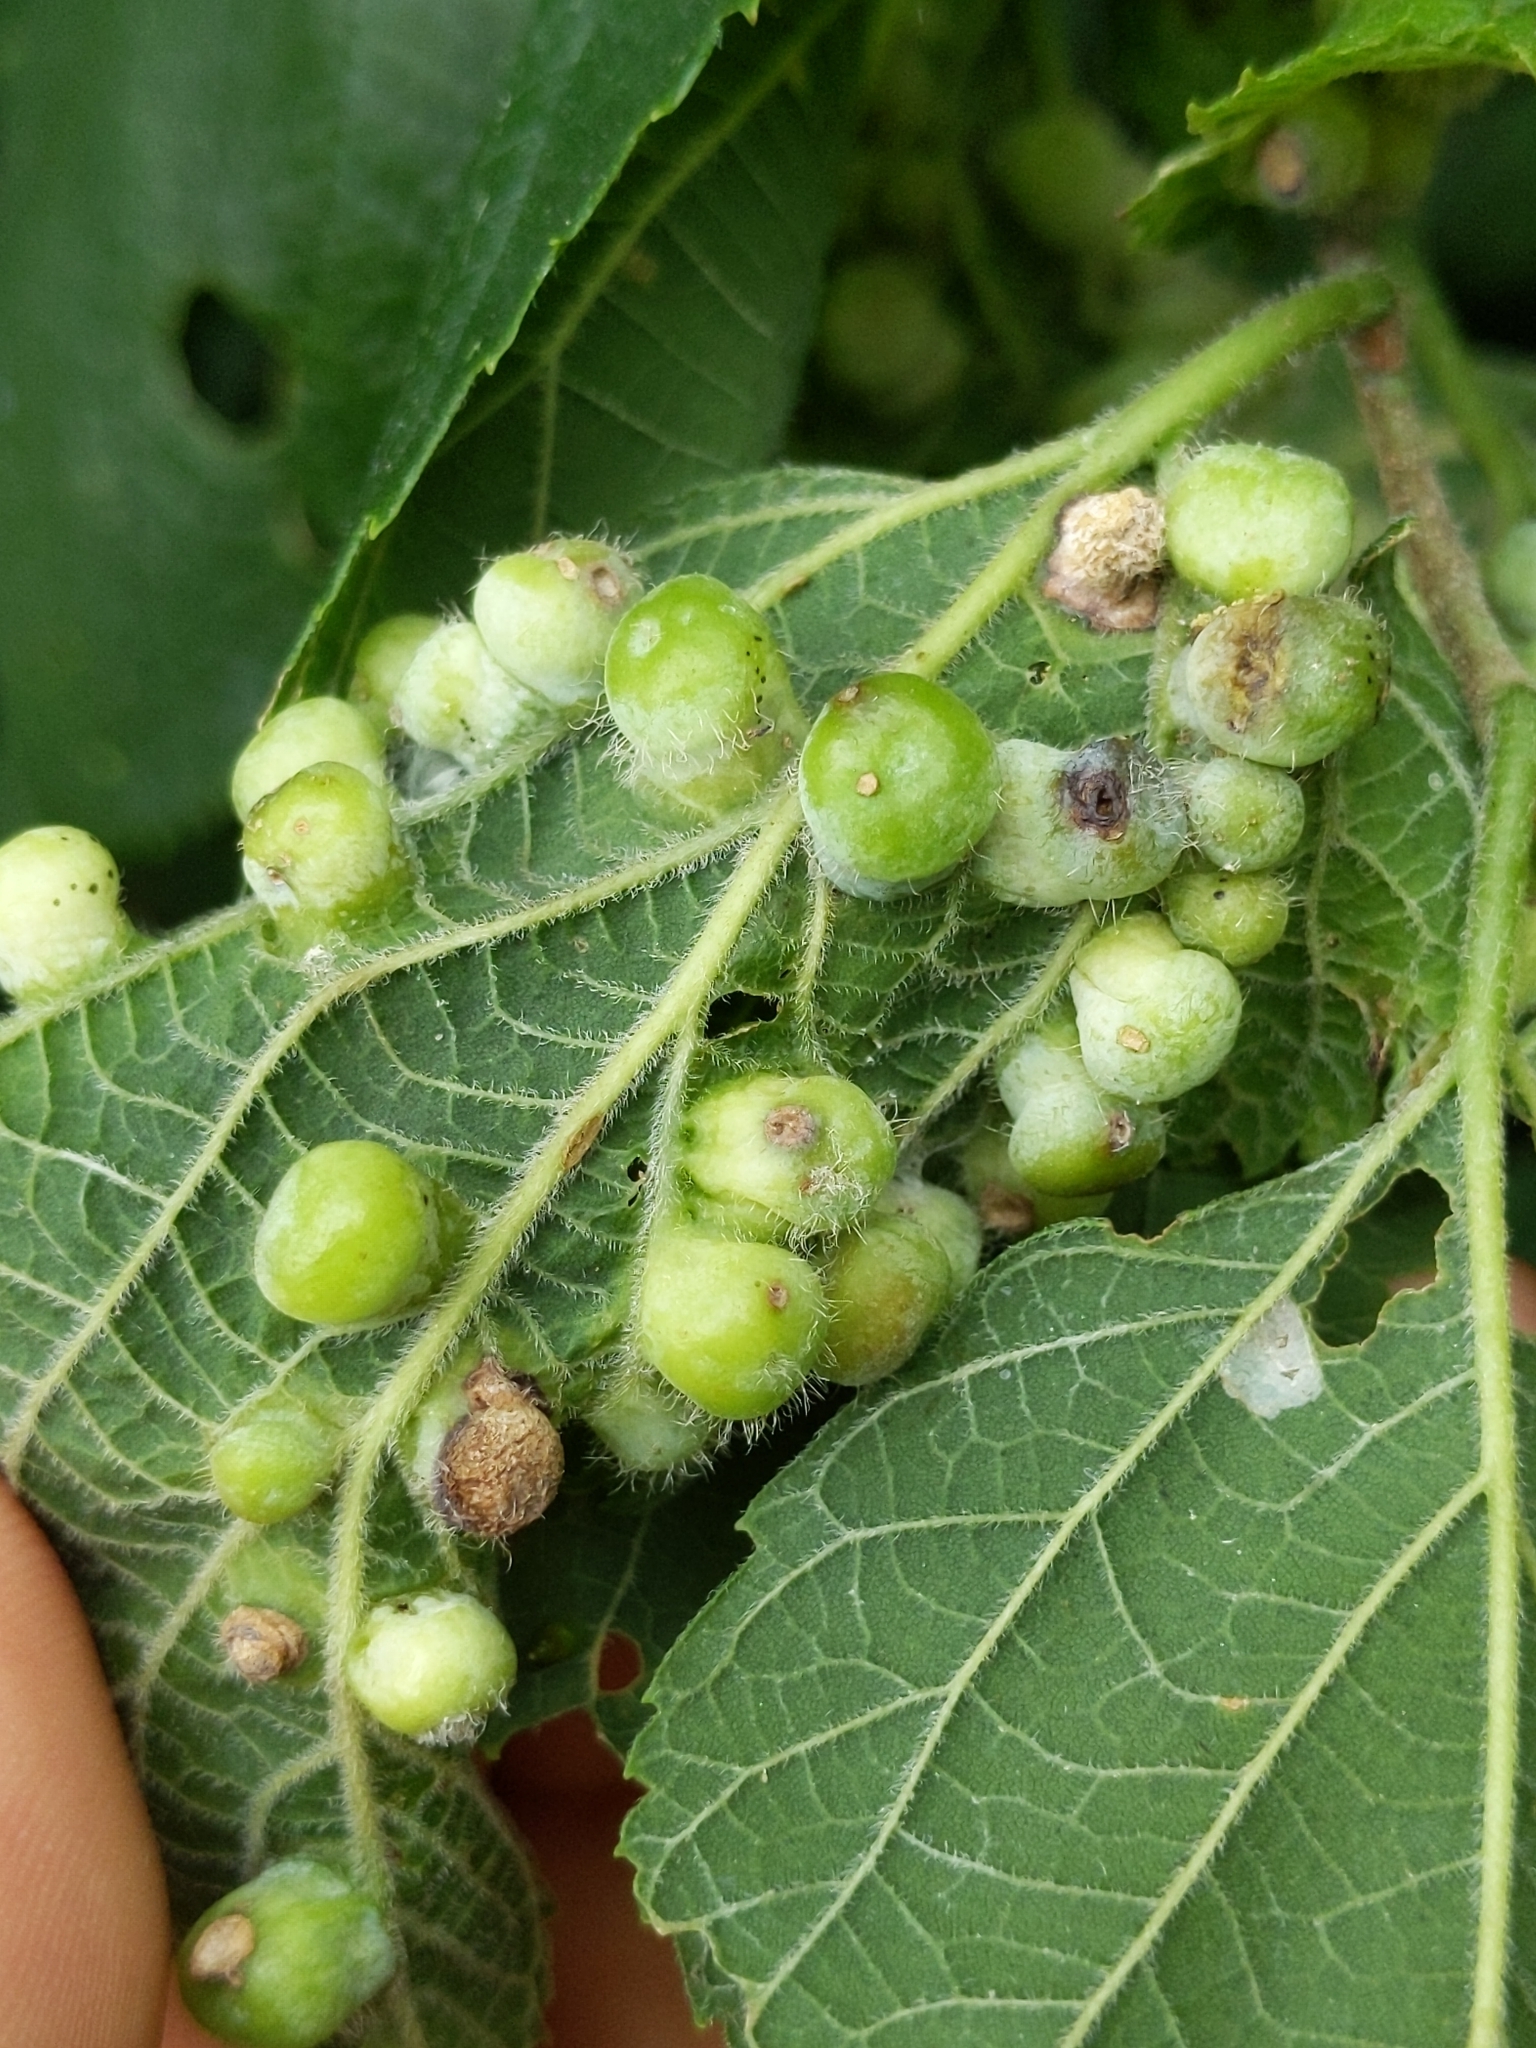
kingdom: Animalia
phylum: Arthropoda
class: Insecta
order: Hemiptera
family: Aphalaridae
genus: Pachypsylla
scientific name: Pachypsylla celtidismamma
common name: Hackberry nipplegall psyllid
